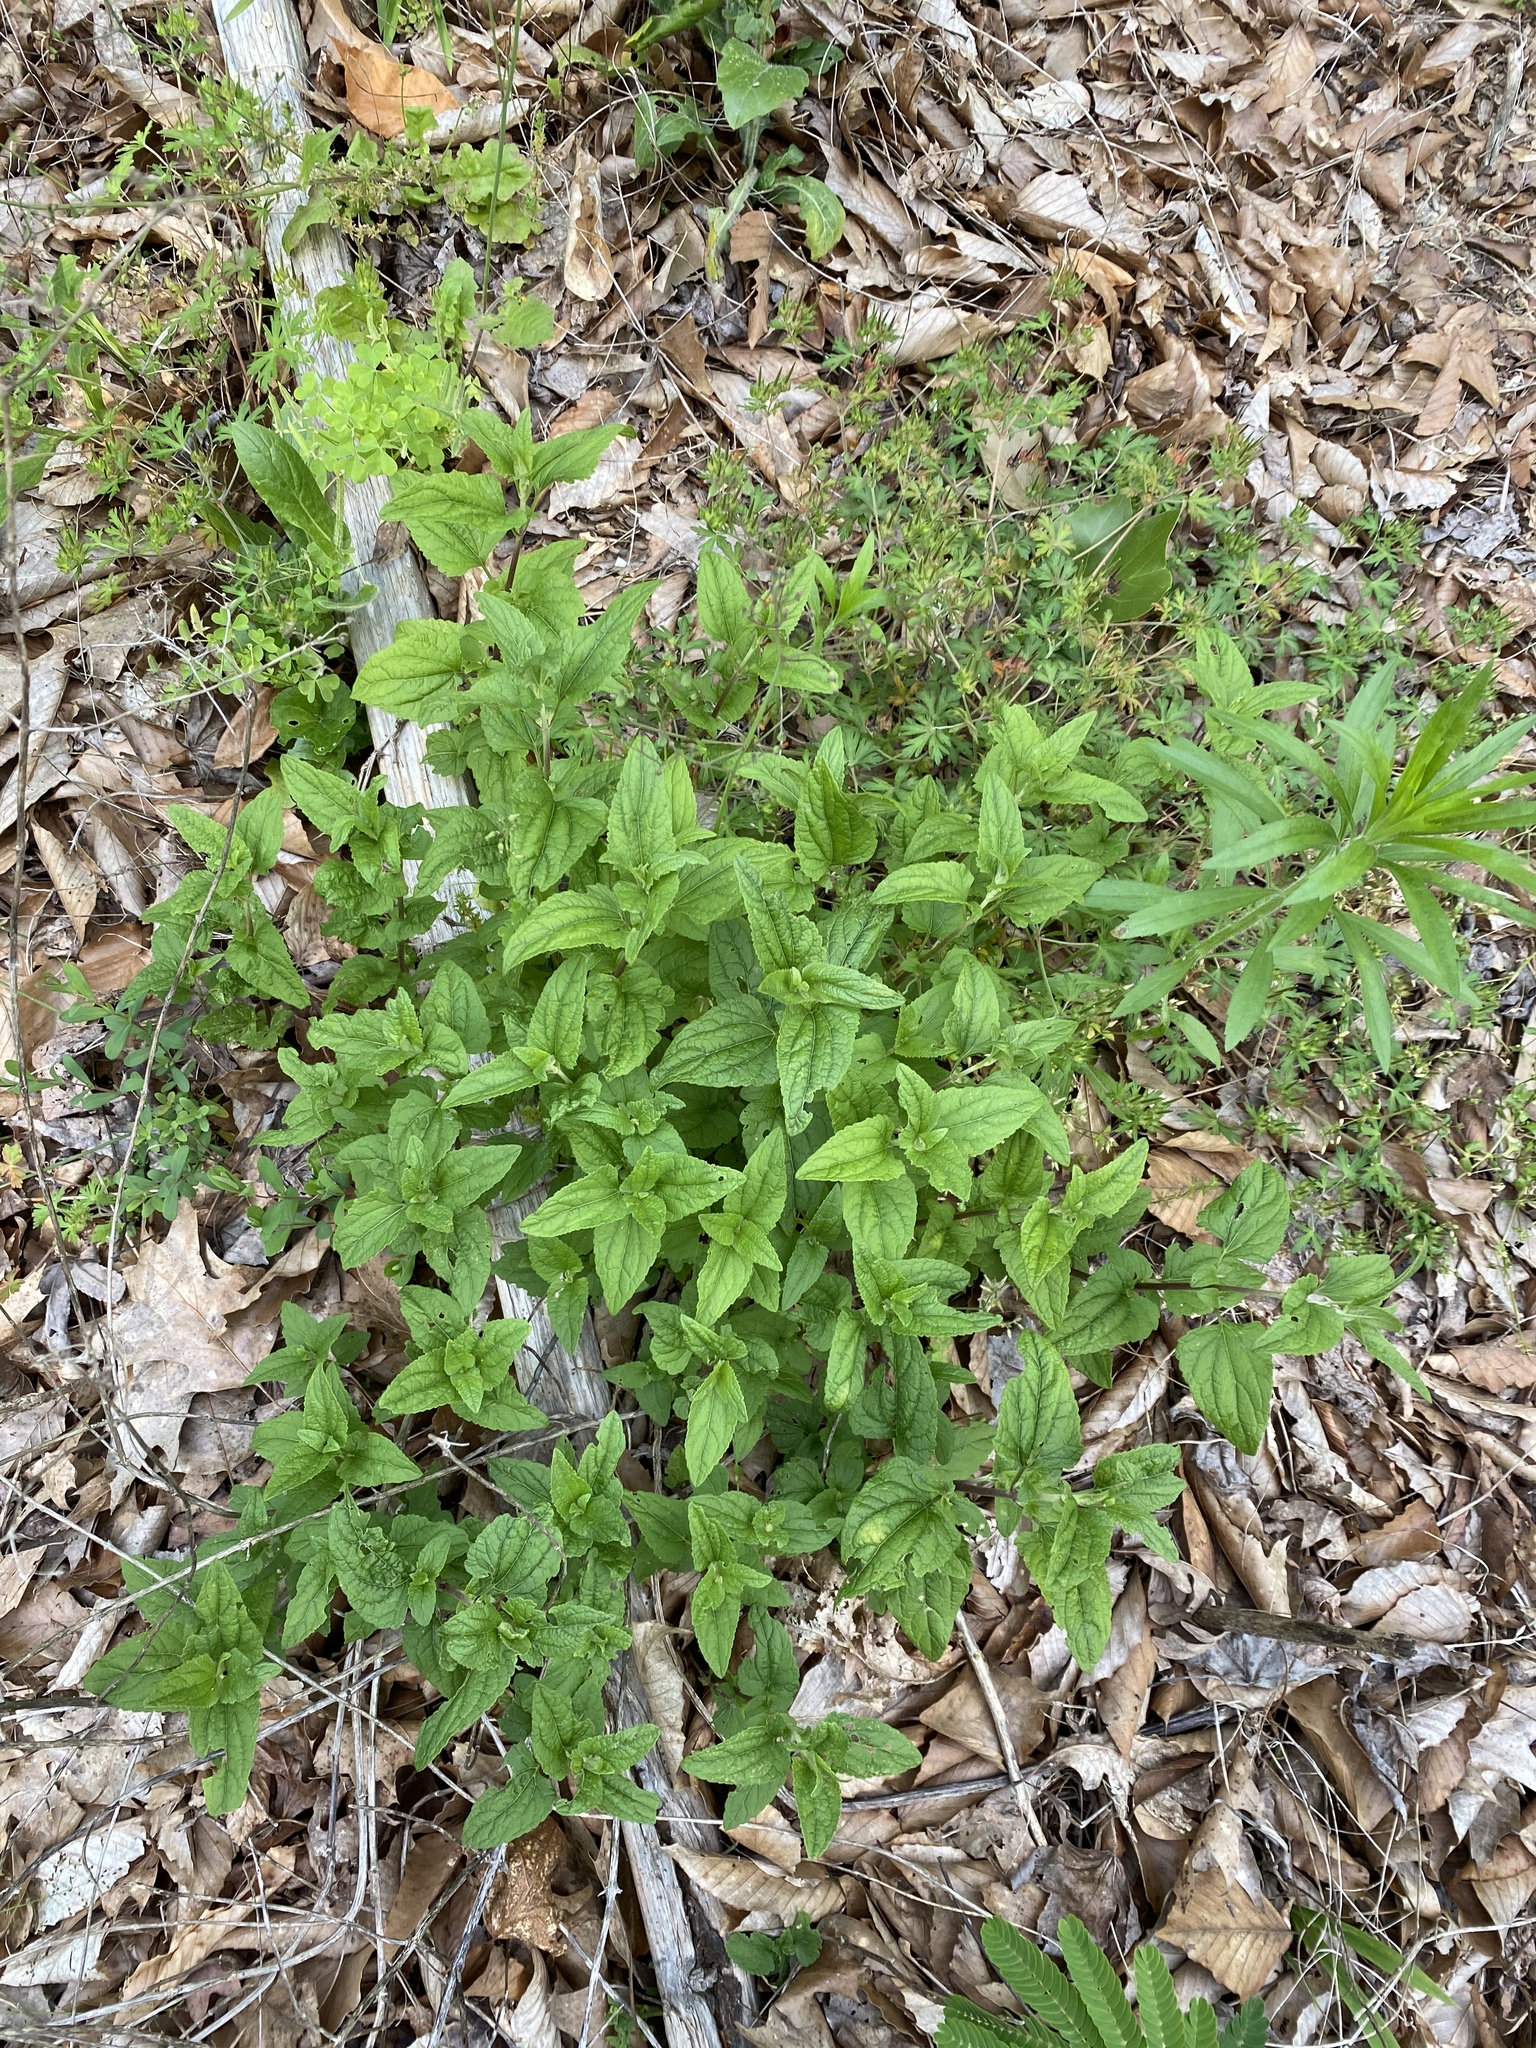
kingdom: Plantae
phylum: Tracheophyta
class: Magnoliopsida
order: Asterales
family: Asteraceae
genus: Conoclinium
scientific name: Conoclinium coelestinum
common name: Blue mistflower
